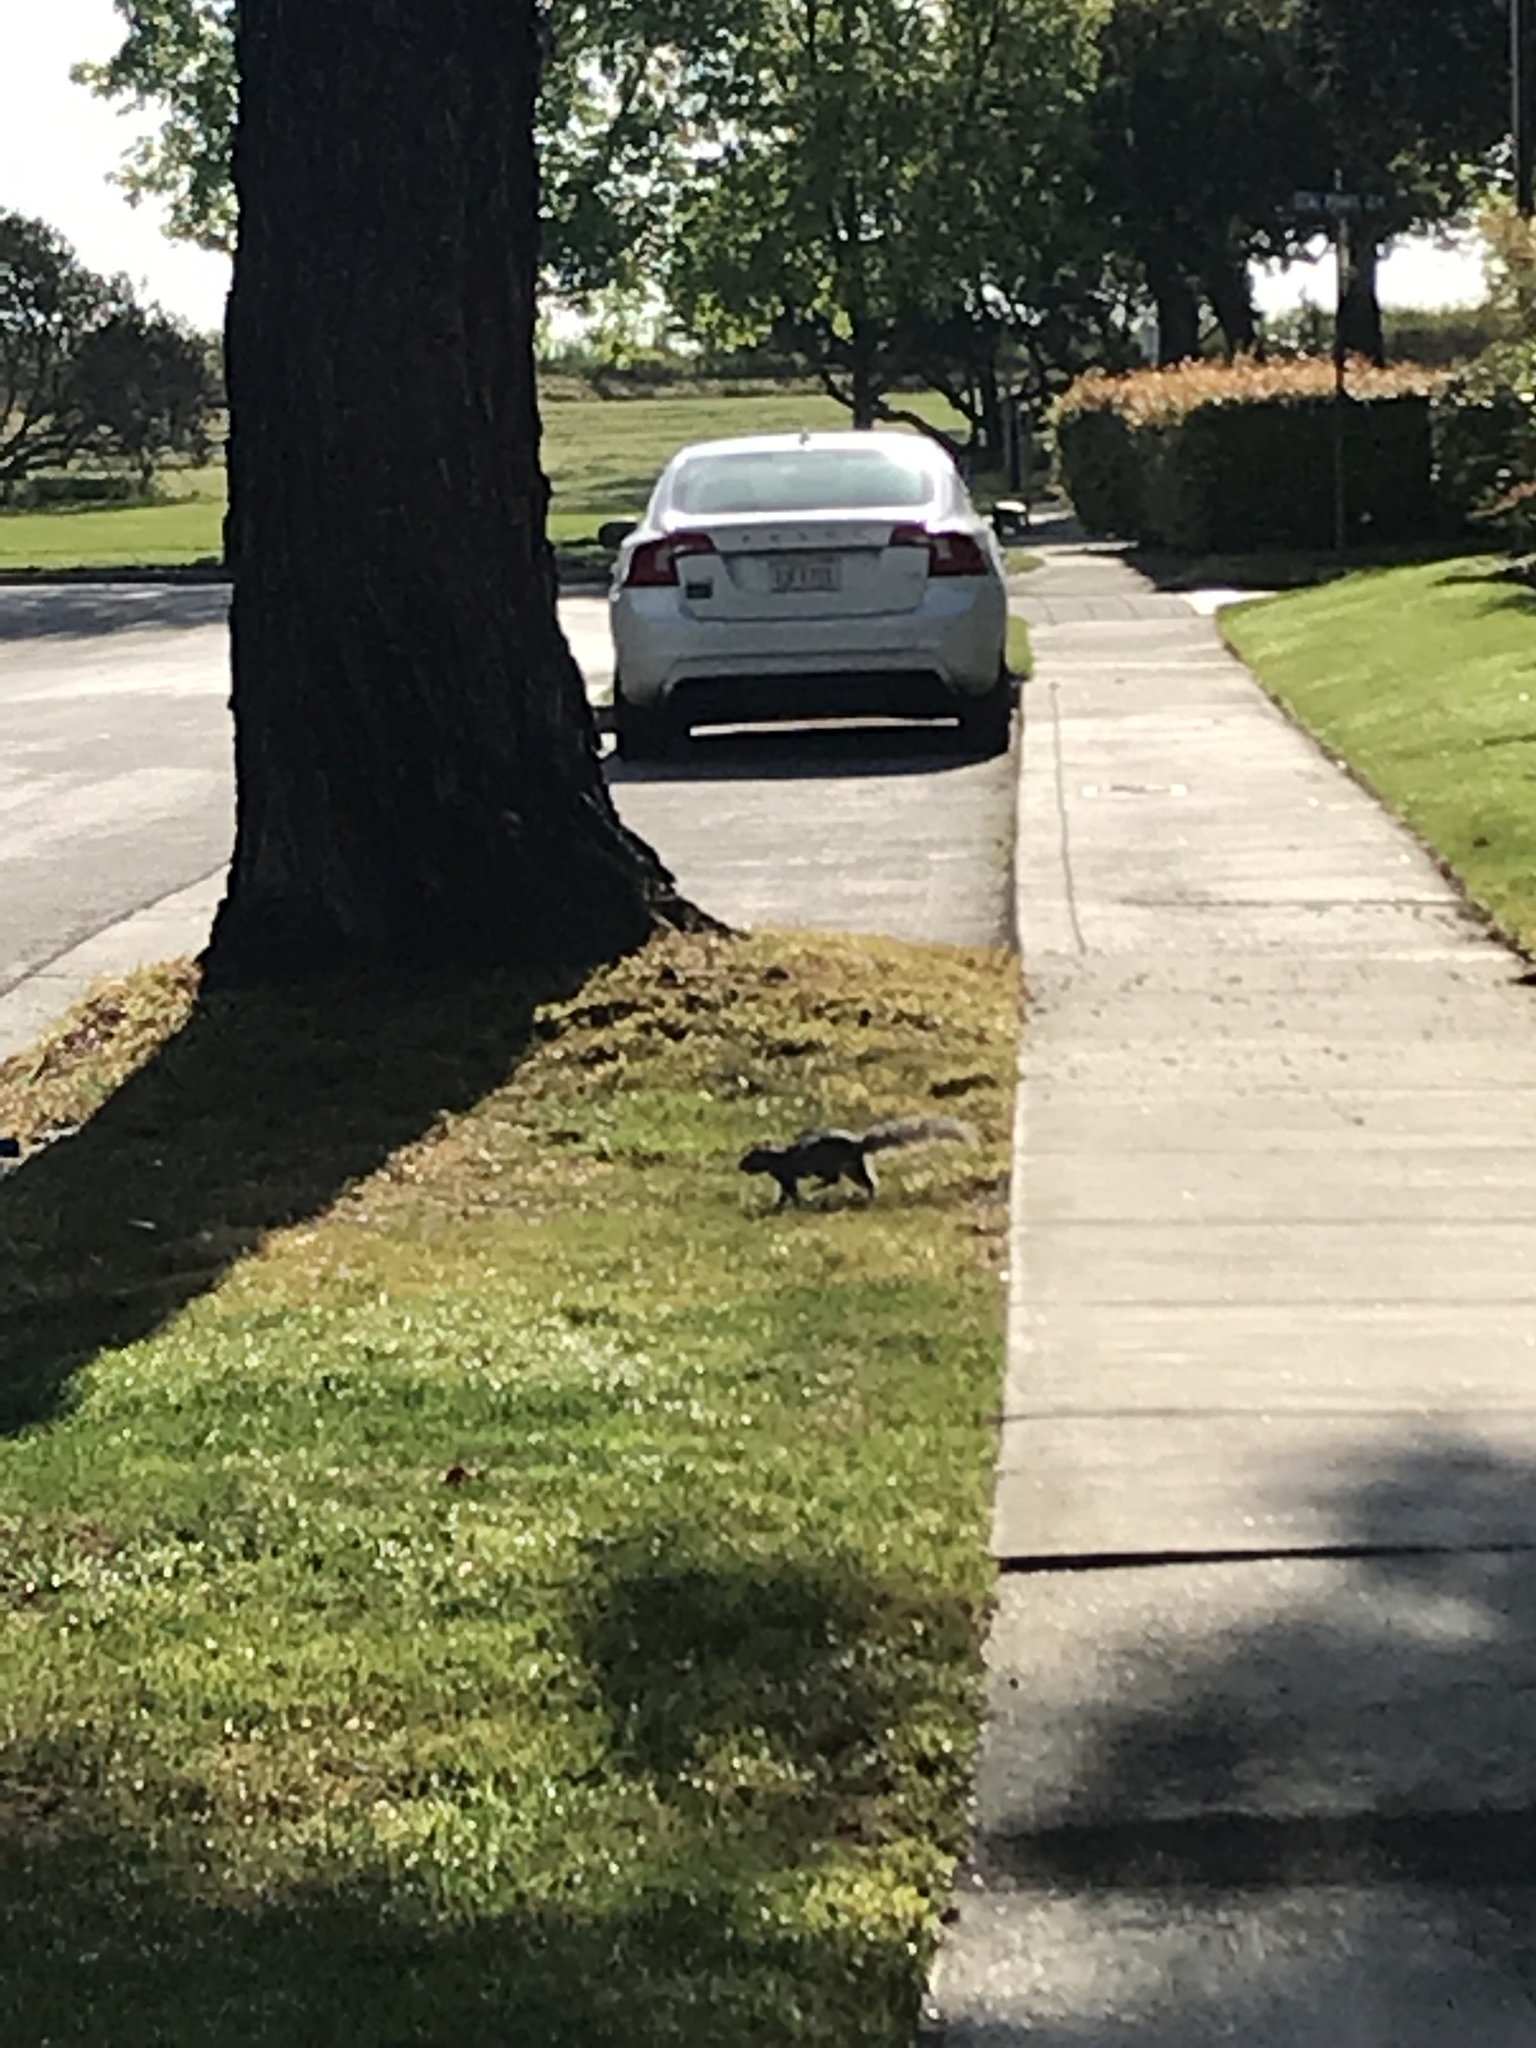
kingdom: Animalia
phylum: Chordata
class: Mammalia
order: Rodentia
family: Sciuridae
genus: Sciurus
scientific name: Sciurus carolinensis
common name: Eastern gray squirrel
